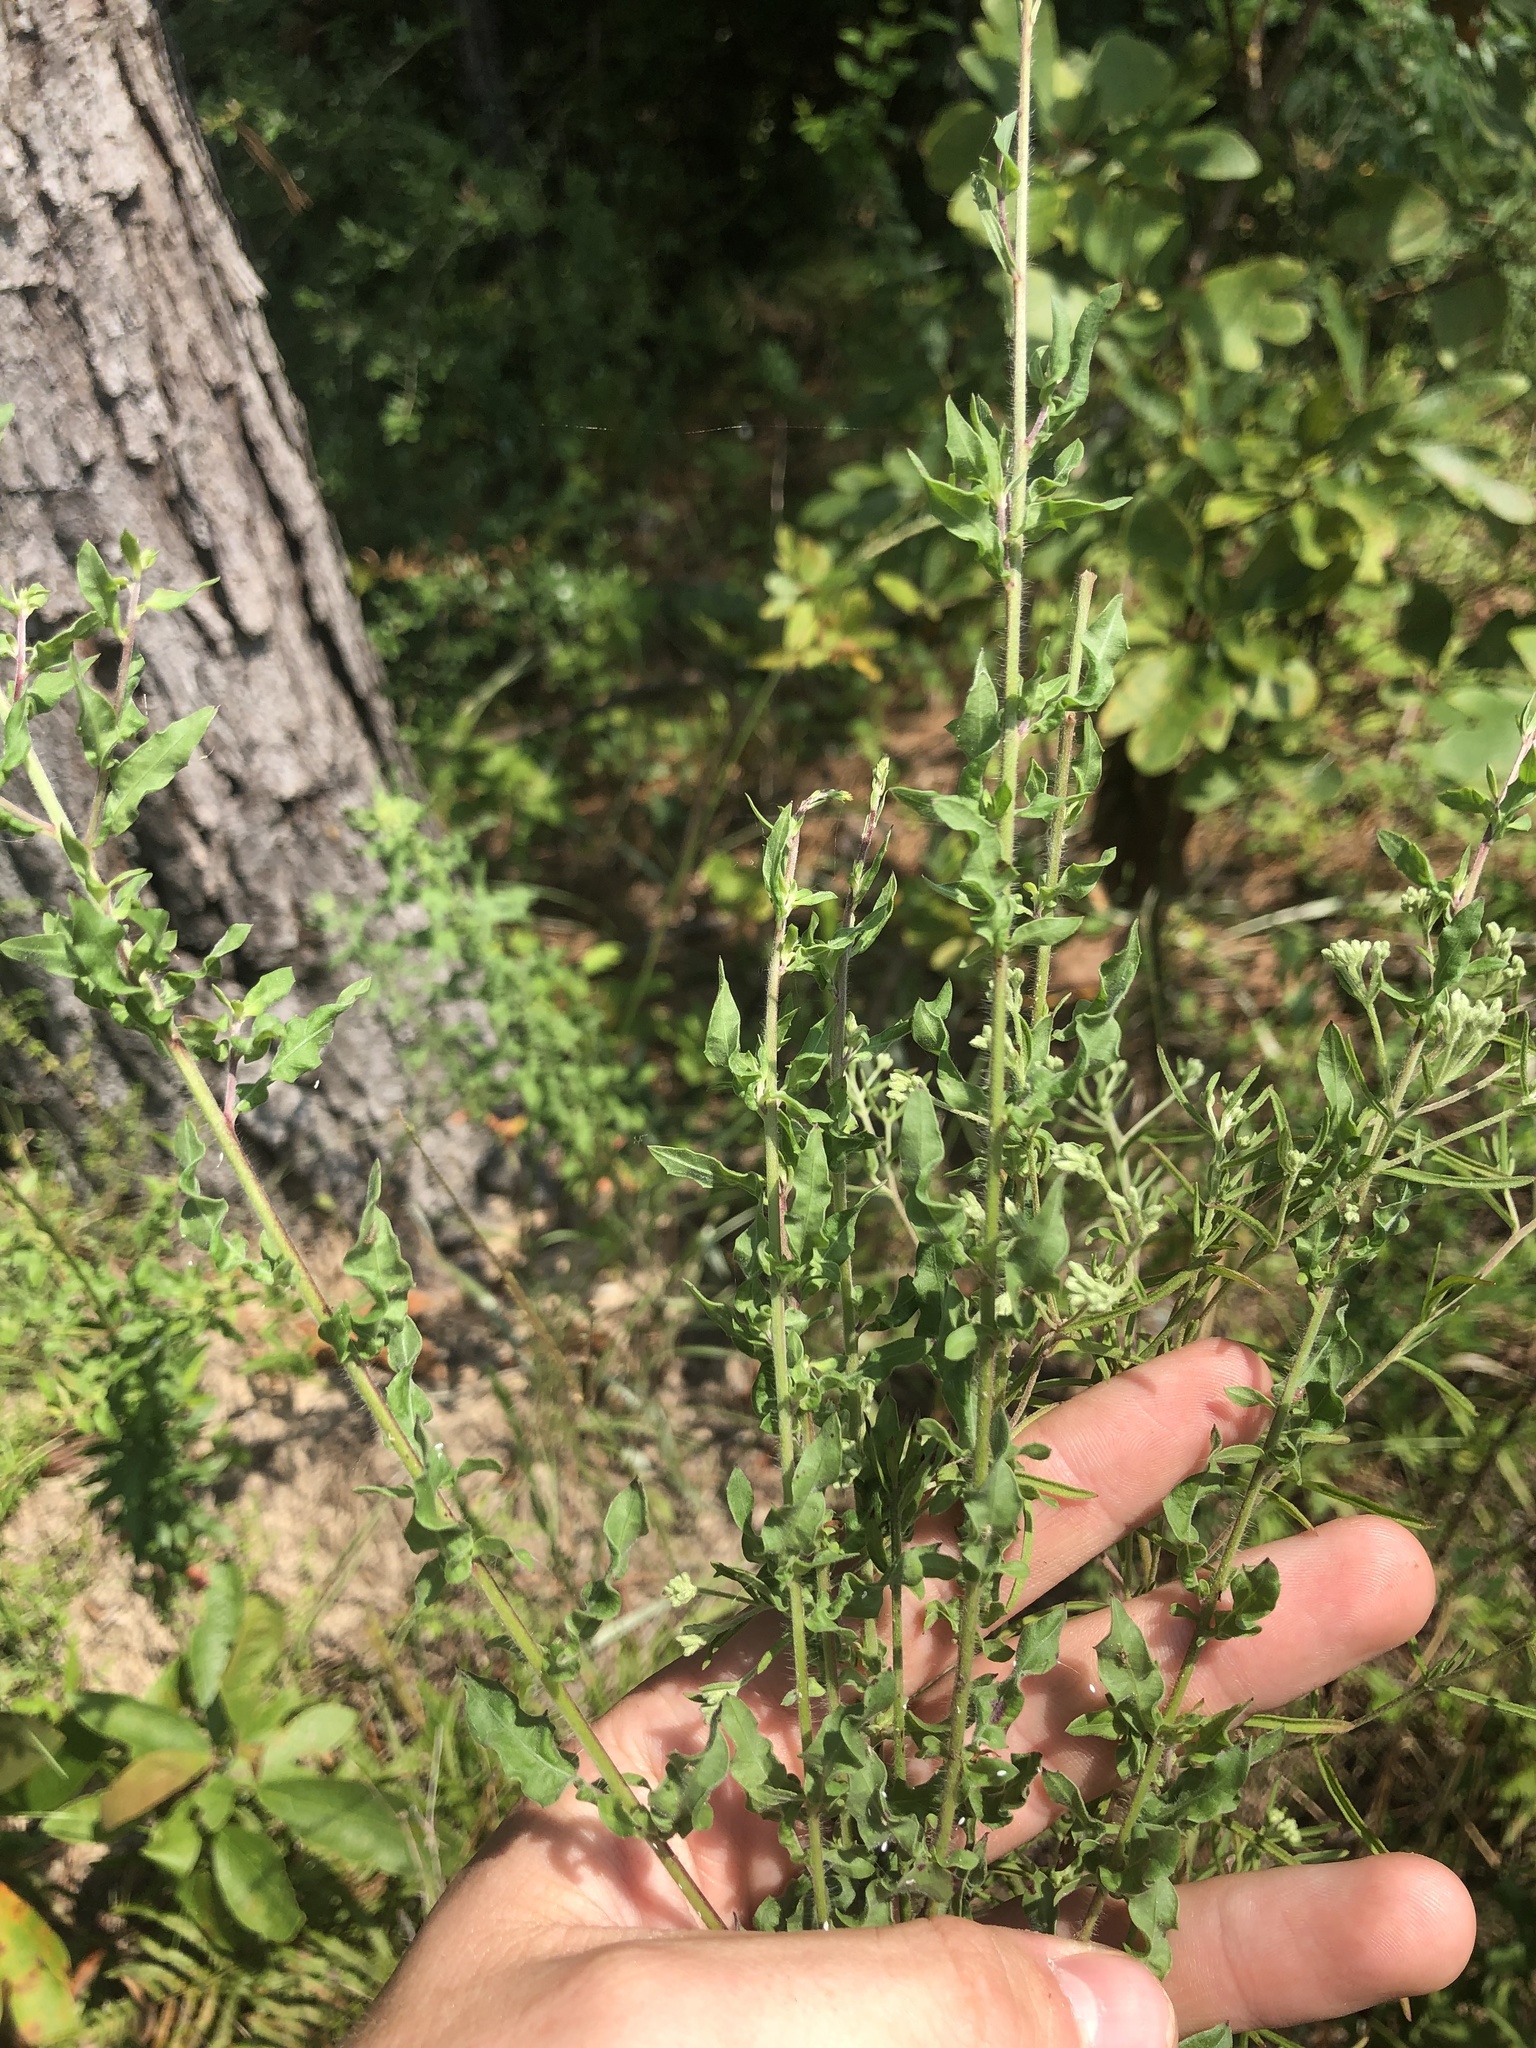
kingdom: Plantae
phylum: Tracheophyta
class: Magnoliopsida
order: Myrtales
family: Onagraceae
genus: Oenothera
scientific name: Oenothera filipes
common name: Slenderstalk beeblossom
